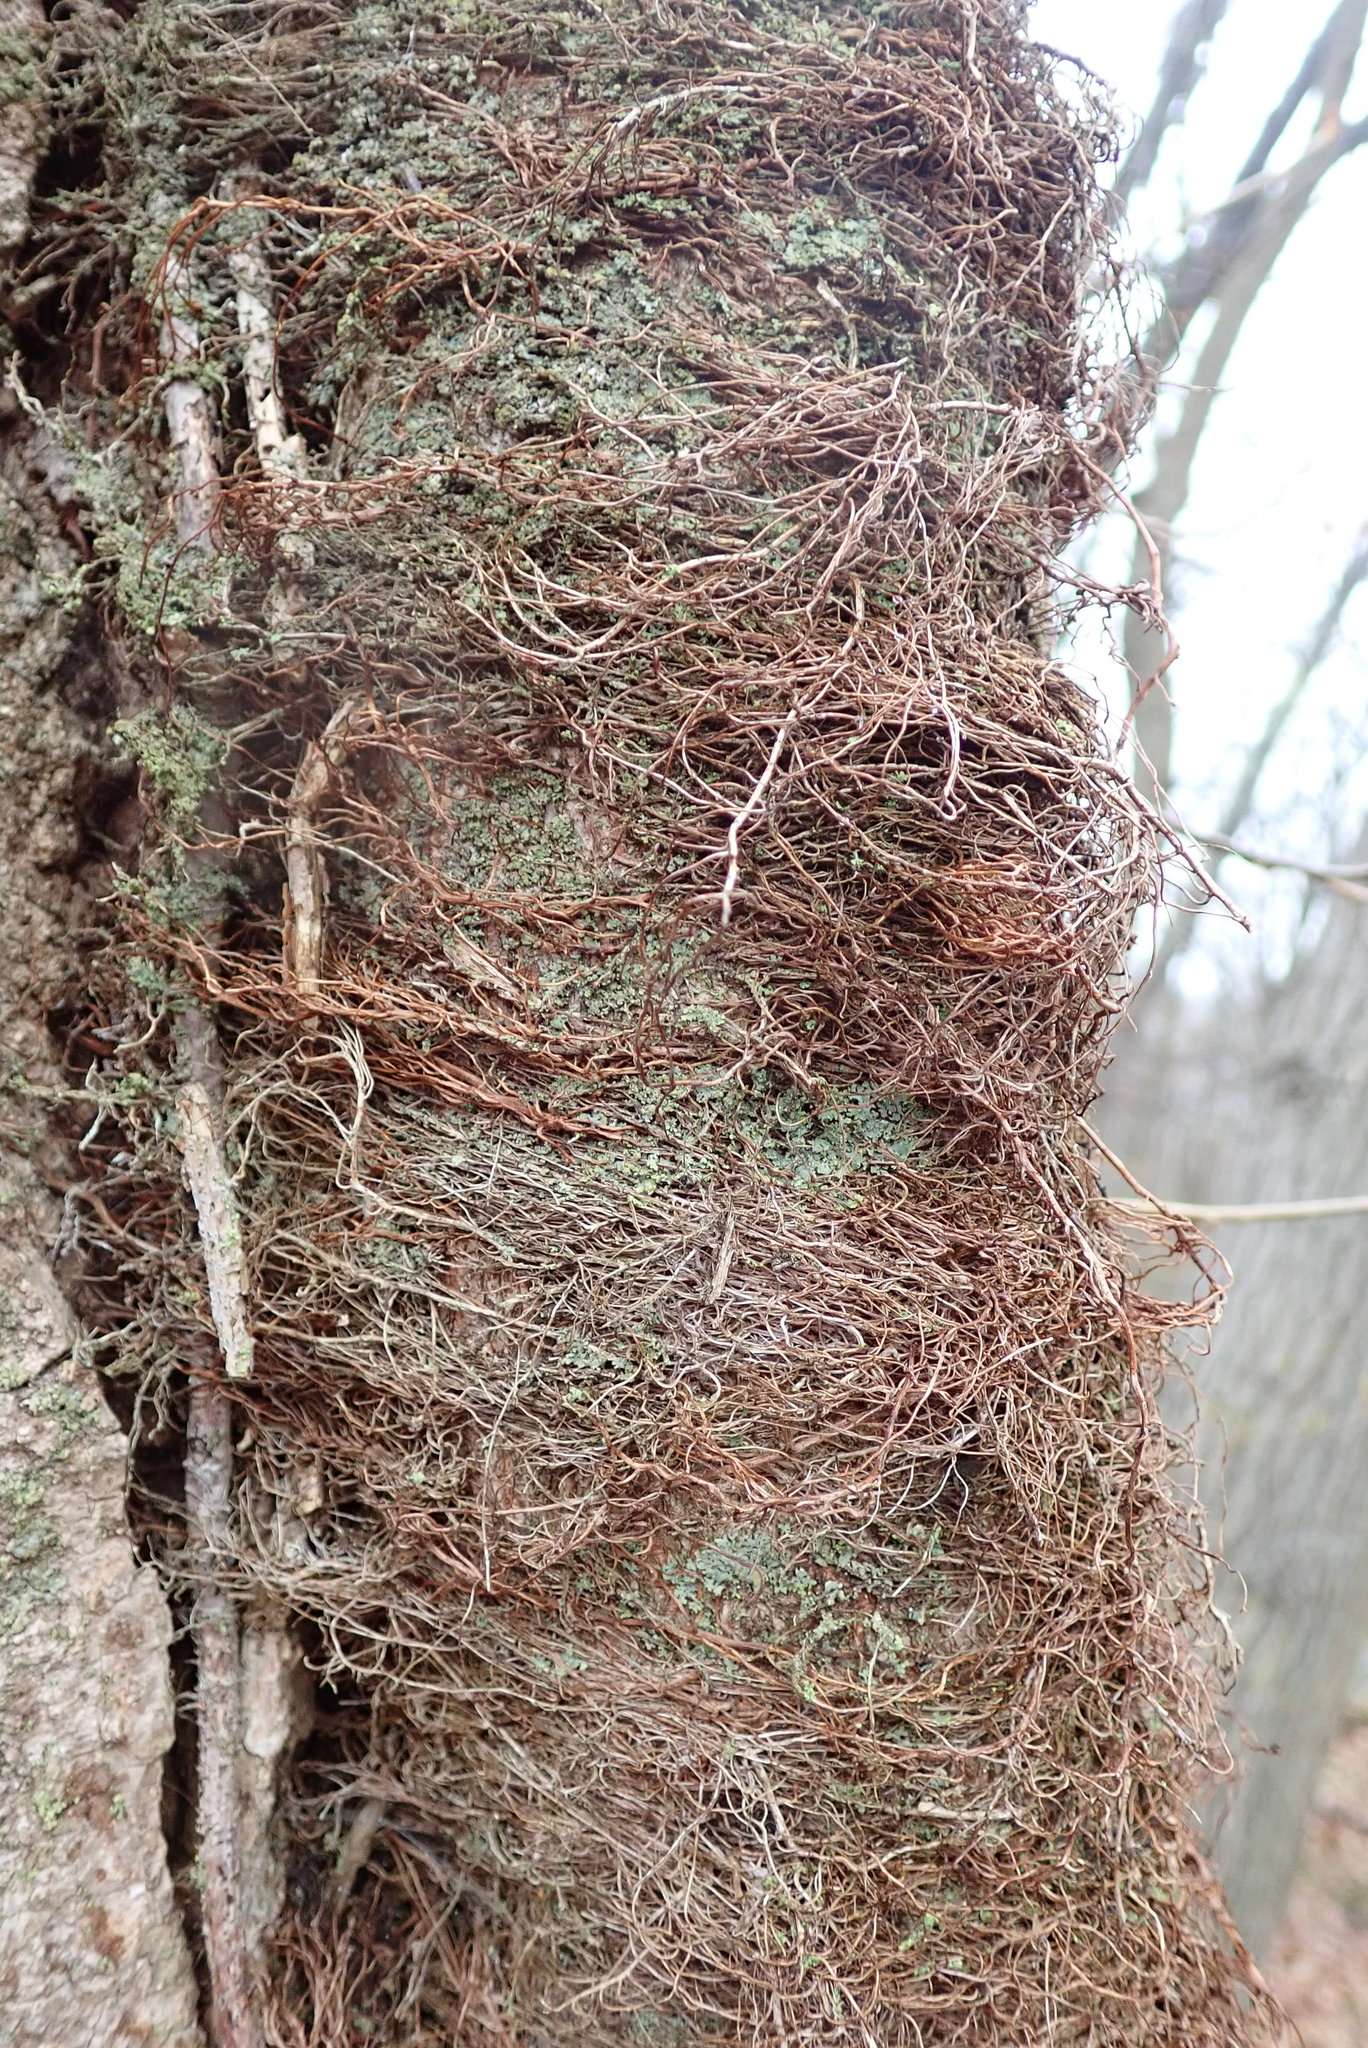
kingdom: Plantae
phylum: Tracheophyta
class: Magnoliopsida
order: Sapindales
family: Anacardiaceae
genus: Toxicodendron
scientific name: Toxicodendron radicans
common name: Poison ivy
